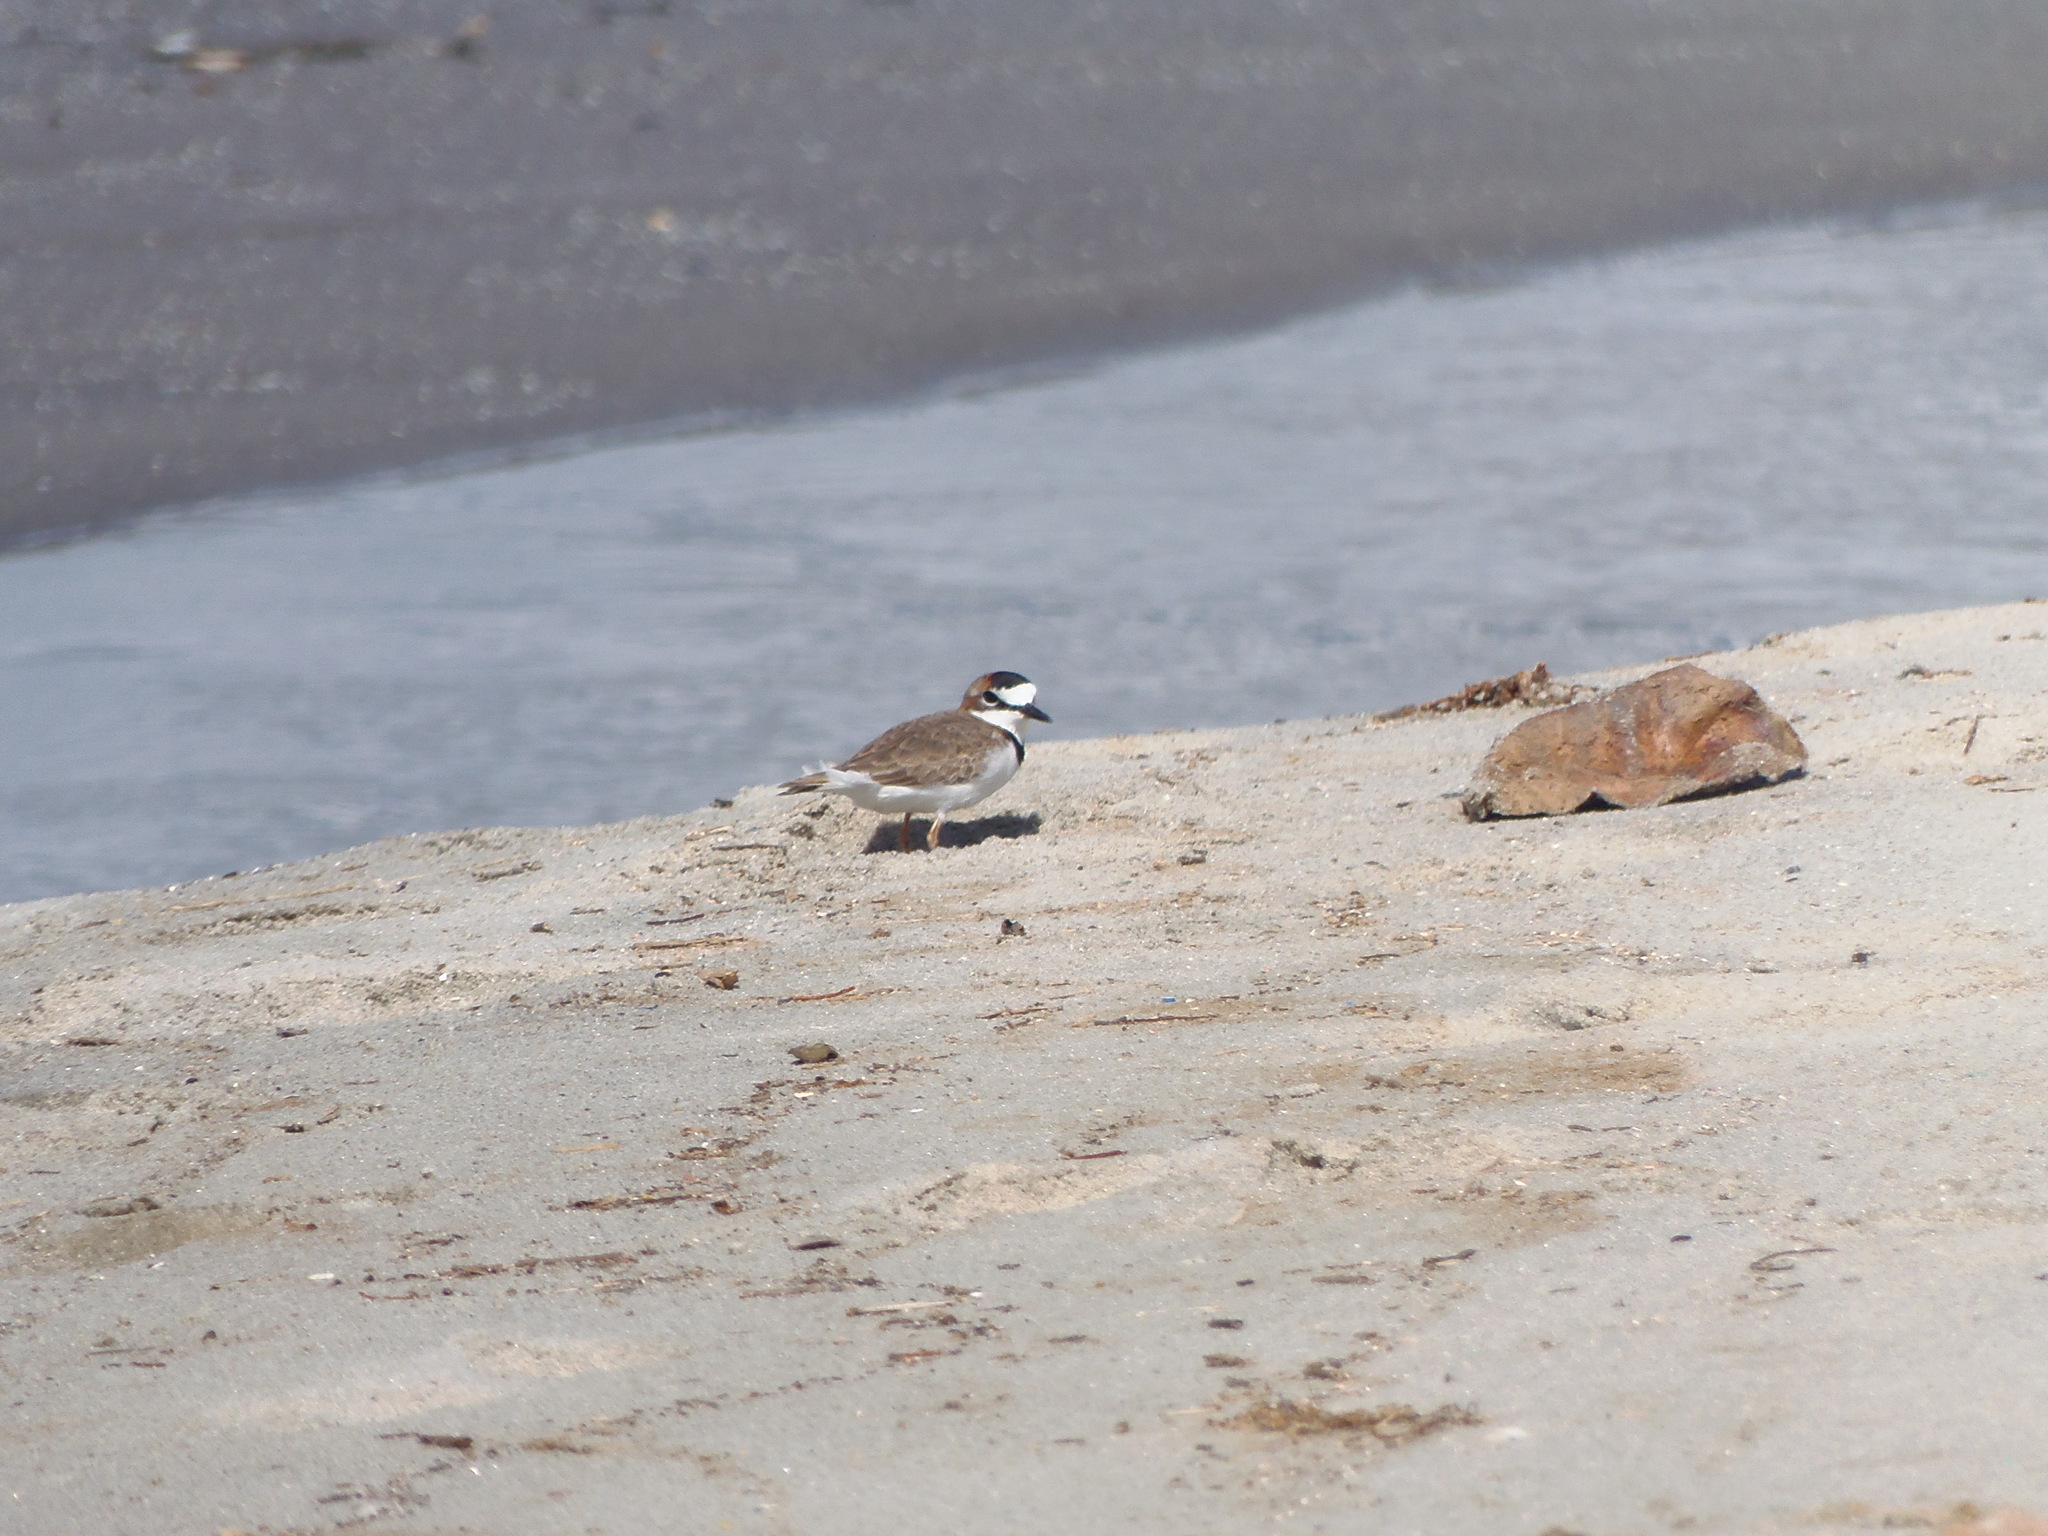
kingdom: Animalia
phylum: Chordata
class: Aves
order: Charadriiformes
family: Charadriidae
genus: Anarhynchus
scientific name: Anarhynchus
